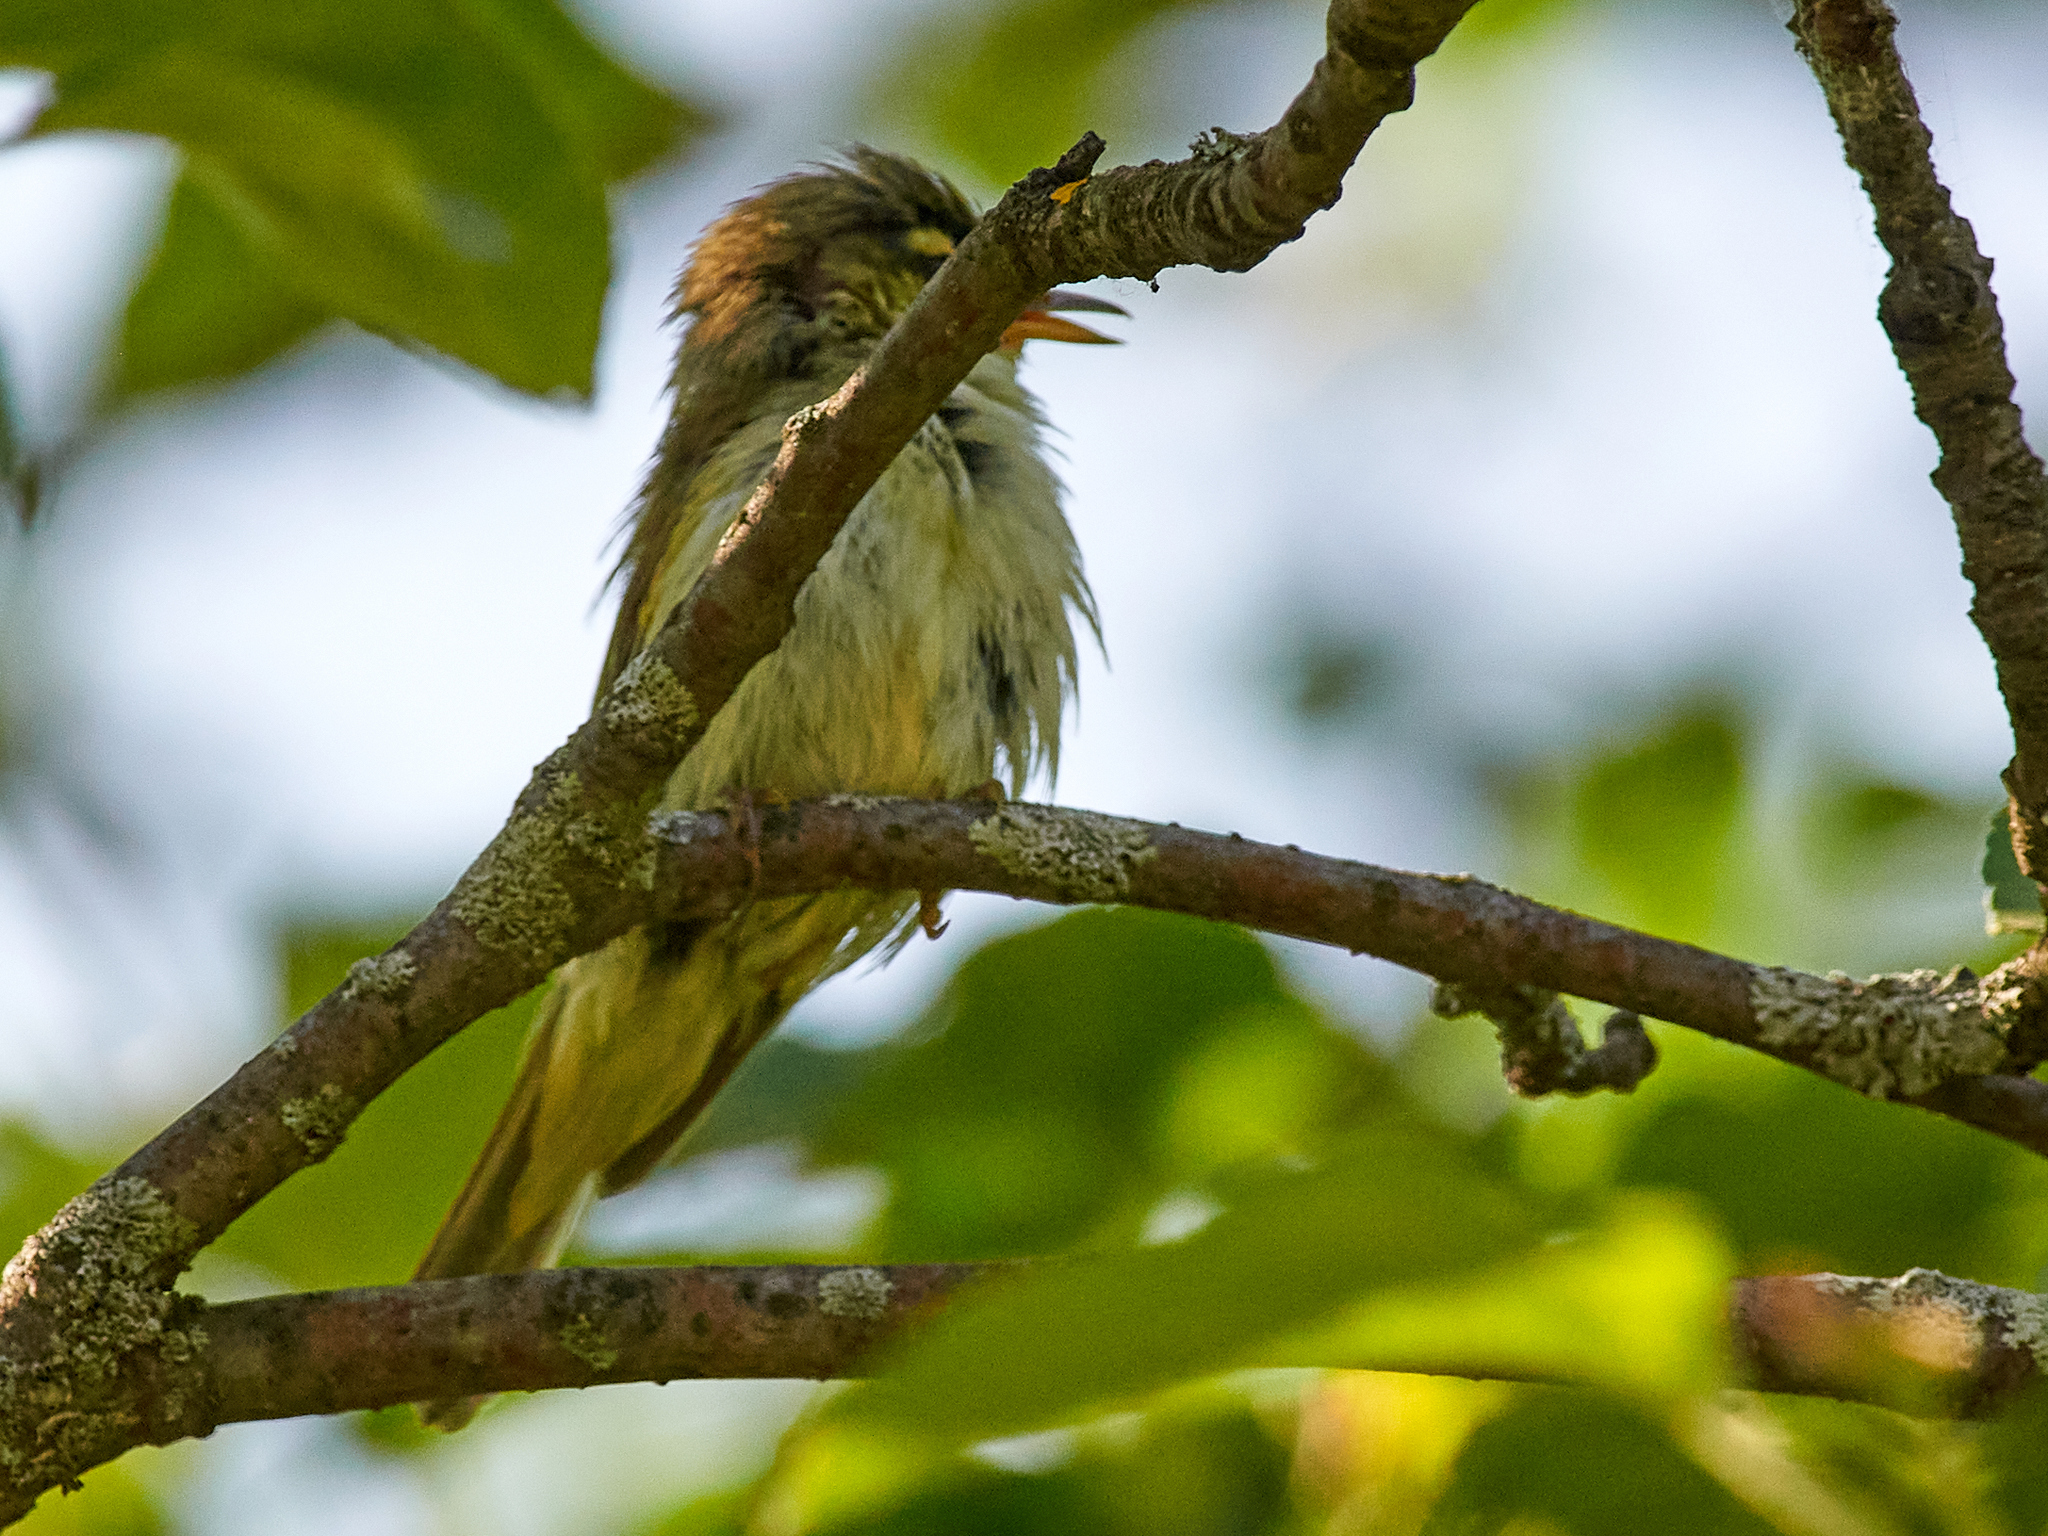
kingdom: Animalia
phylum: Chordata
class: Aves
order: Passeriformes
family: Acrocephalidae
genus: Acrocephalus
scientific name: Acrocephalus dumetorum
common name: Blyth's reed warbler
